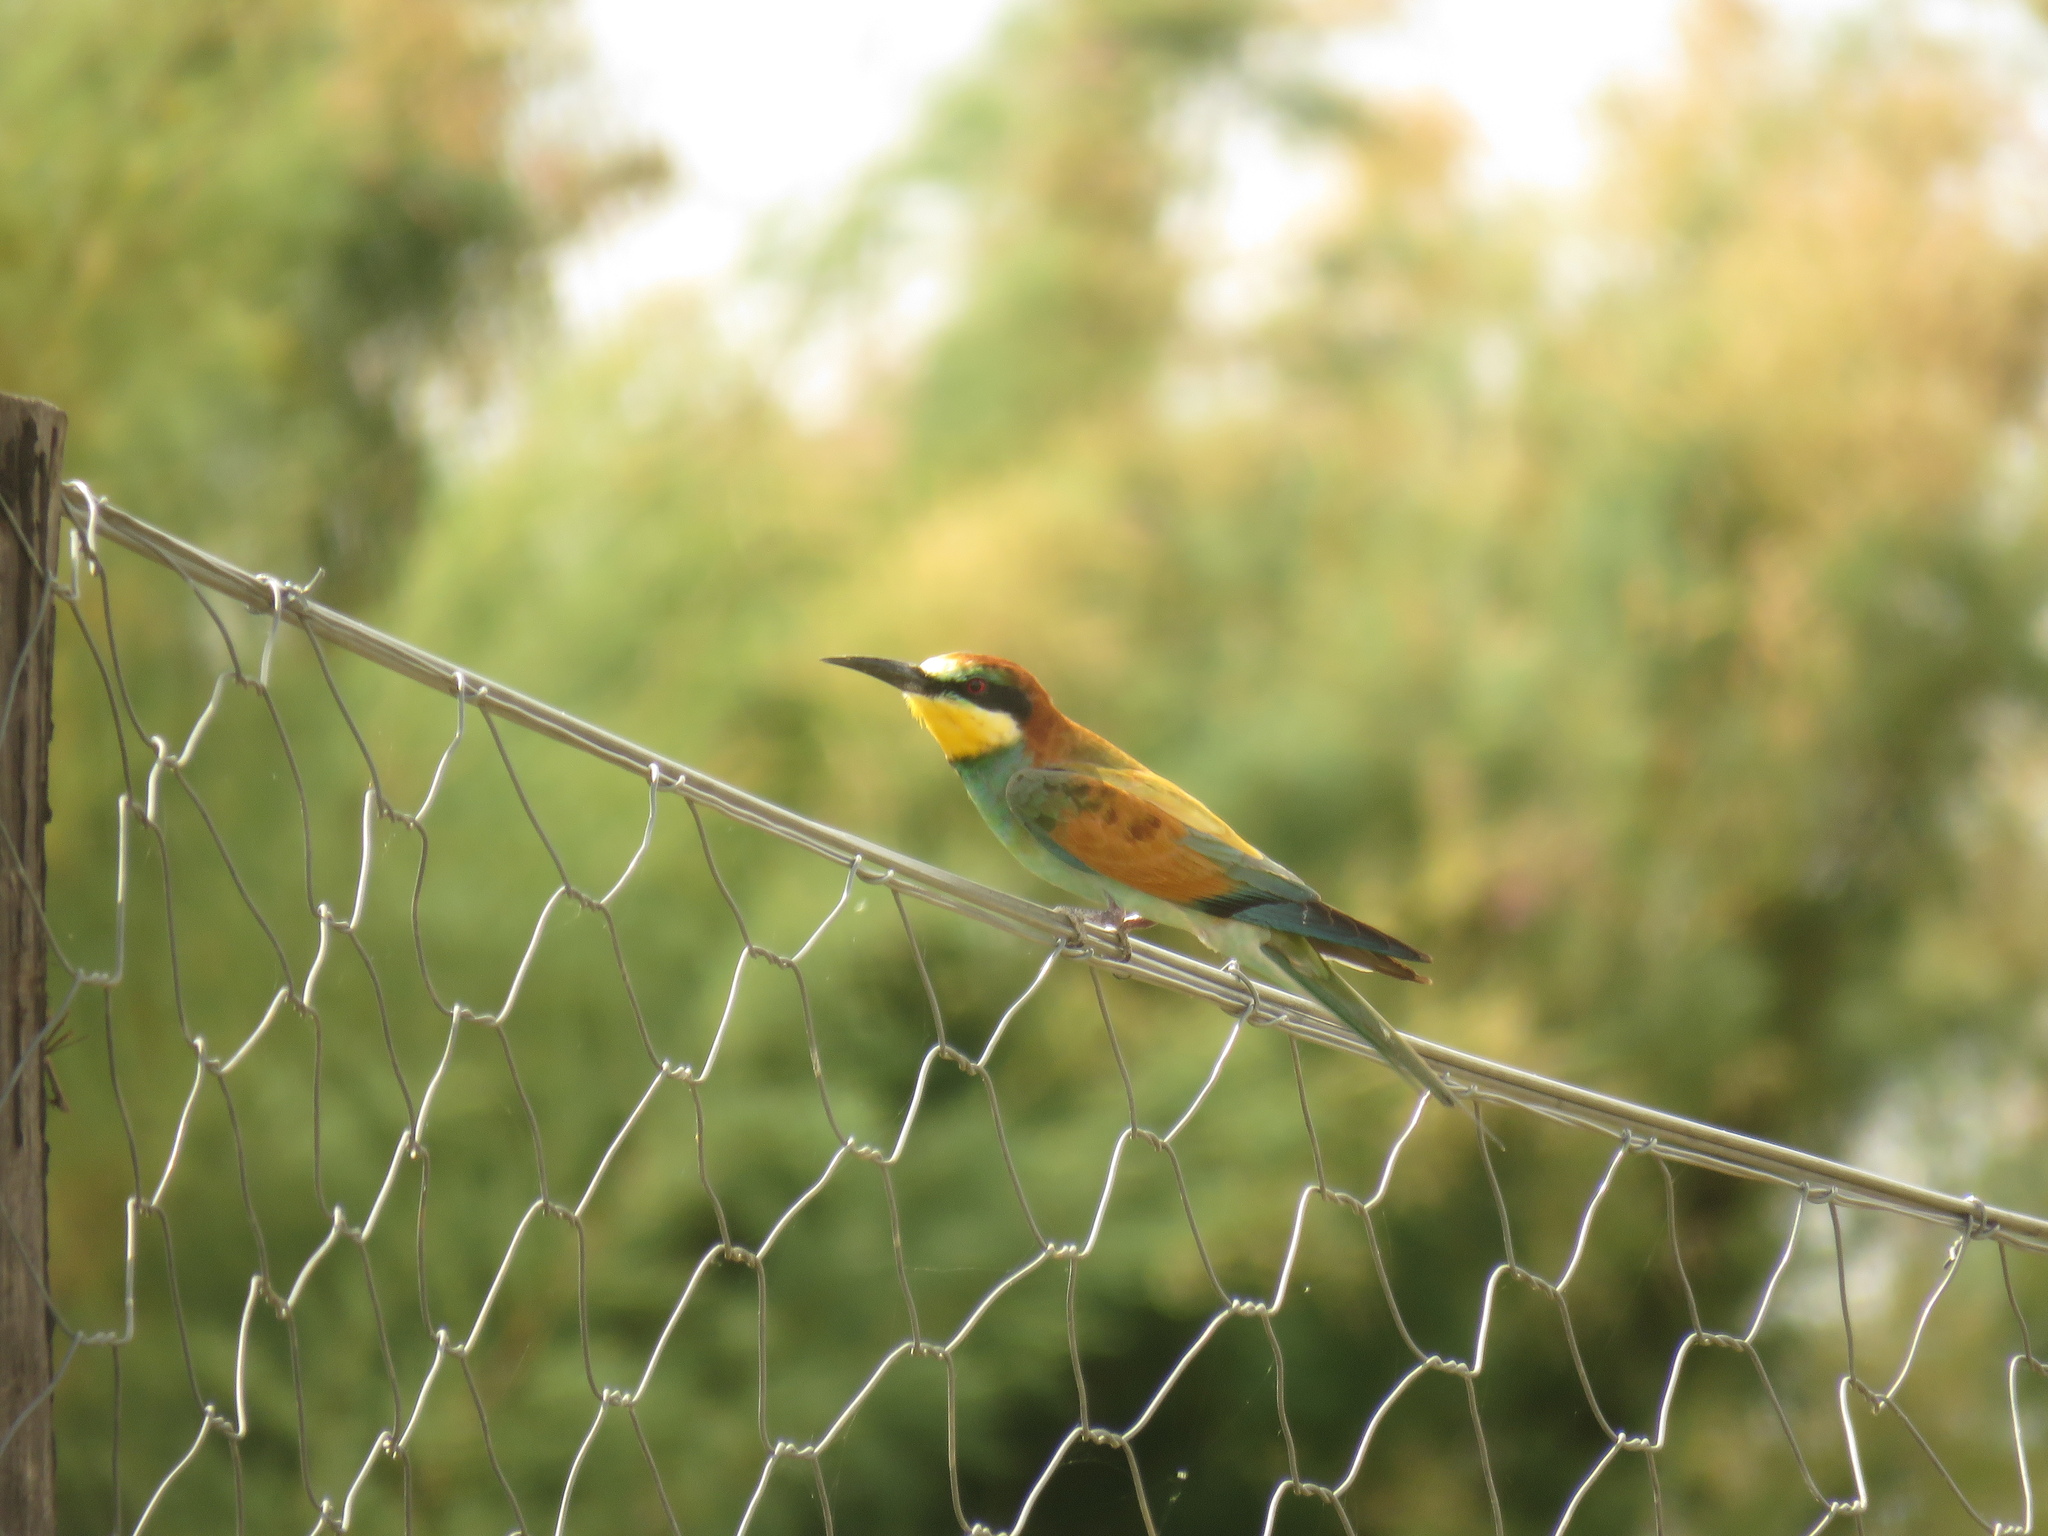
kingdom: Animalia
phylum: Chordata
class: Aves
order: Coraciiformes
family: Meropidae
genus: Merops
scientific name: Merops apiaster
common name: European bee-eater
